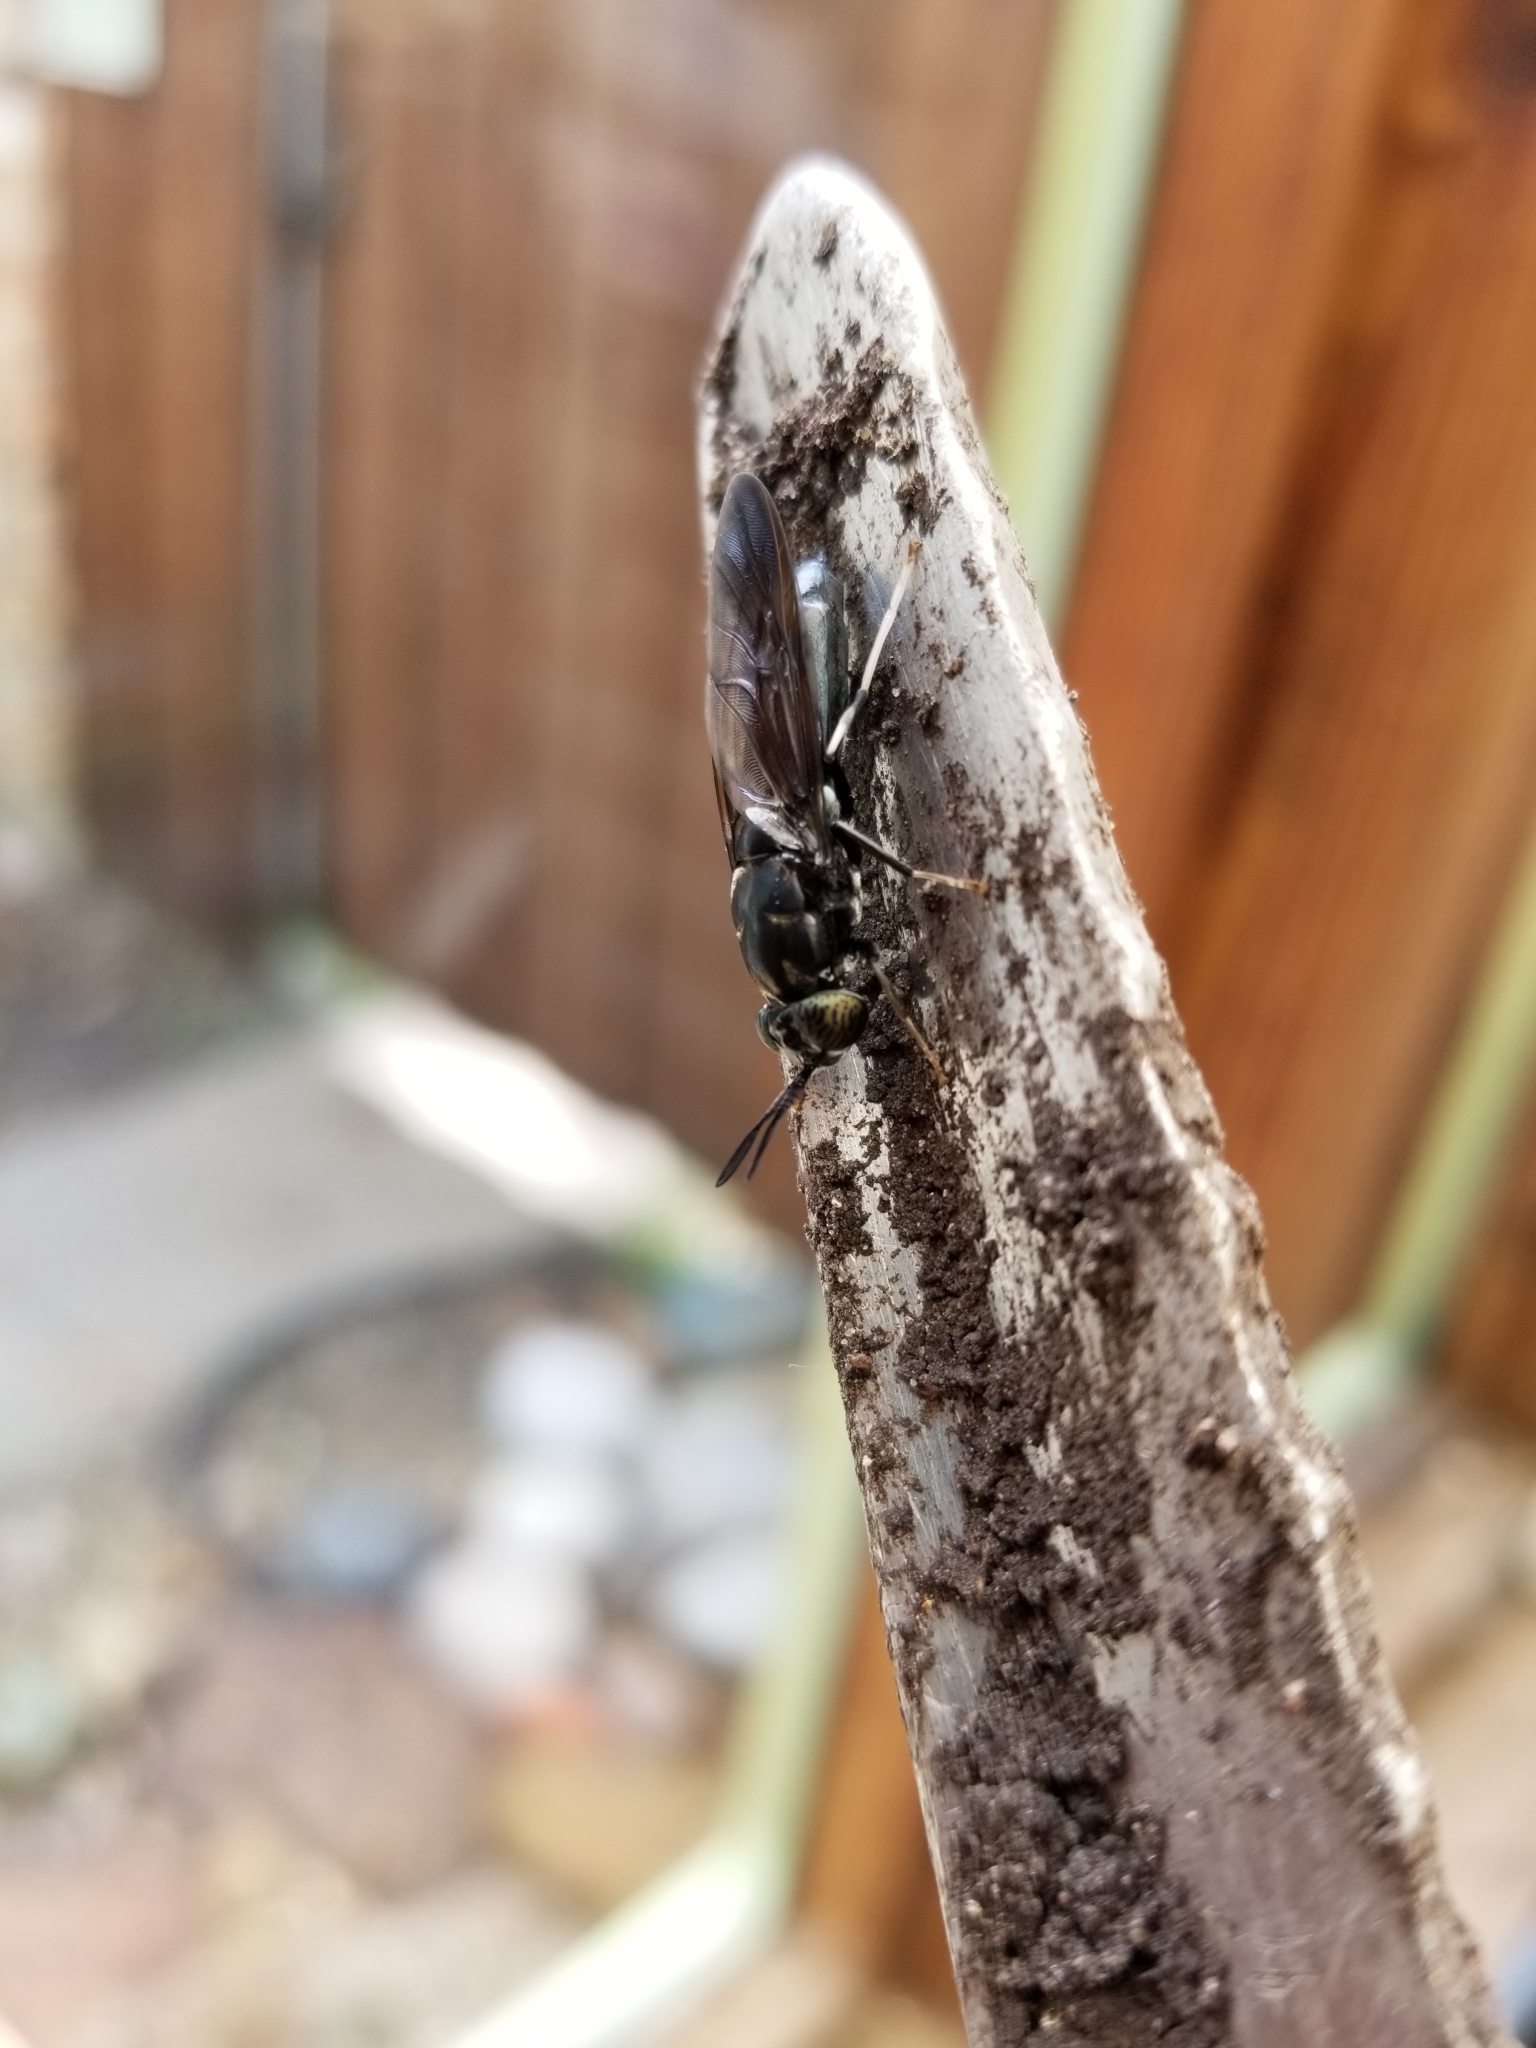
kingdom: Animalia
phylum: Arthropoda
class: Insecta
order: Diptera
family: Stratiomyidae
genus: Hermetia
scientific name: Hermetia illucens
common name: Black soldier fly
